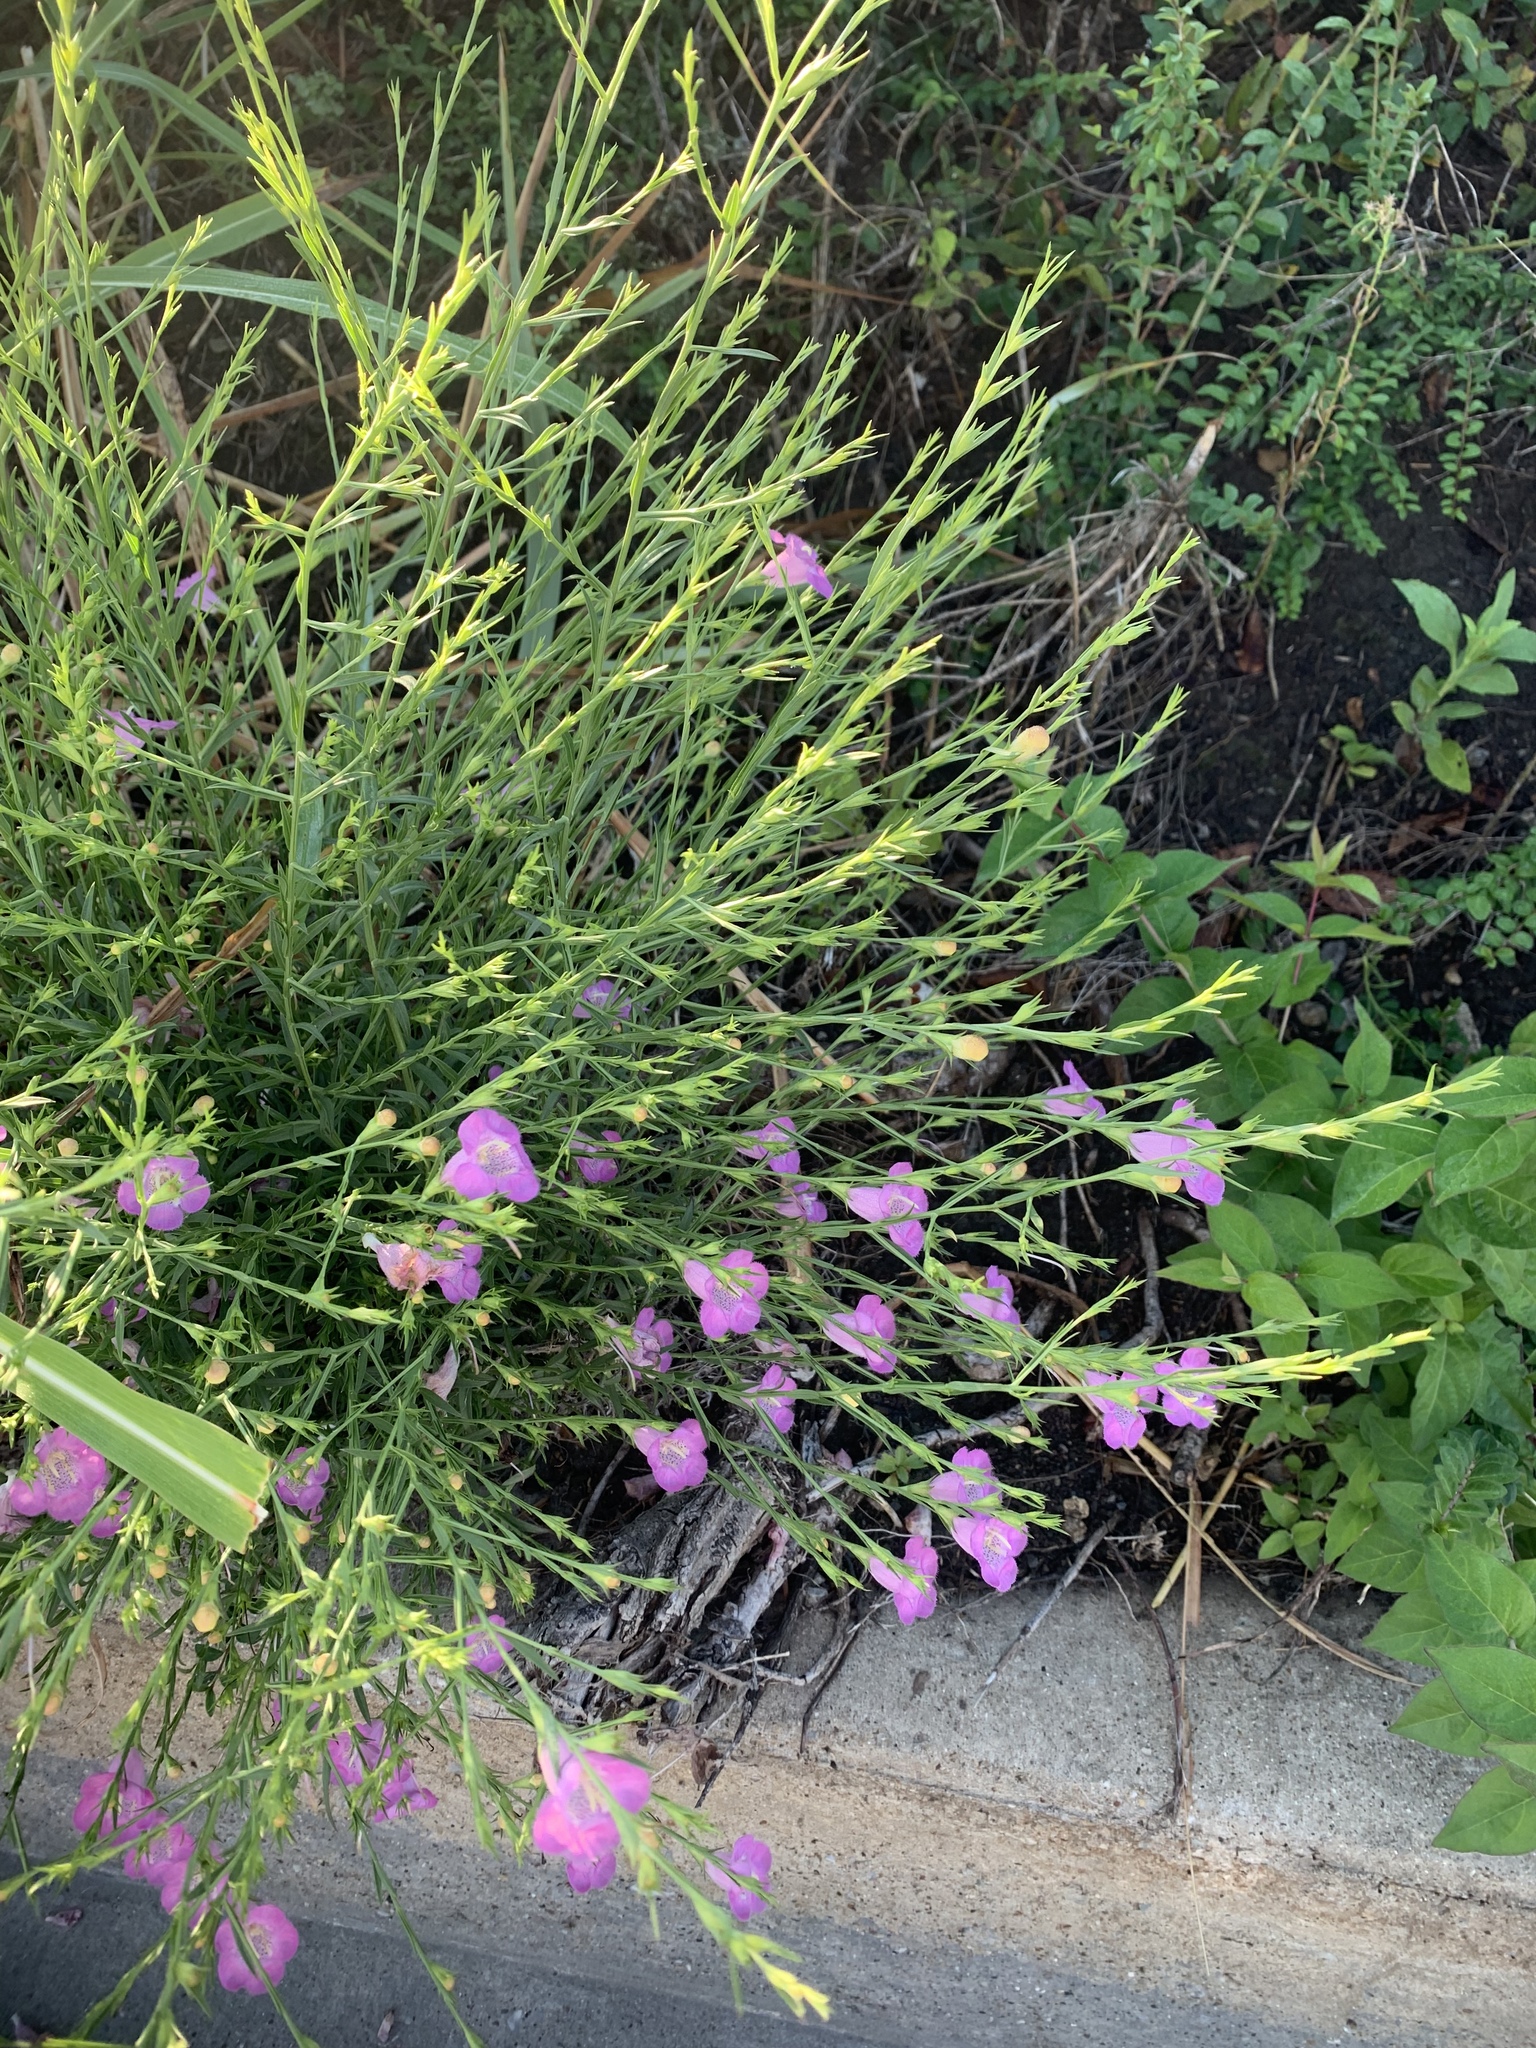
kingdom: Plantae
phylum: Tracheophyta
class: Magnoliopsida
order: Lamiales
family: Orobanchaceae
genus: Agalinis
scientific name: Agalinis heterophylla
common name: Prairie agalinis
